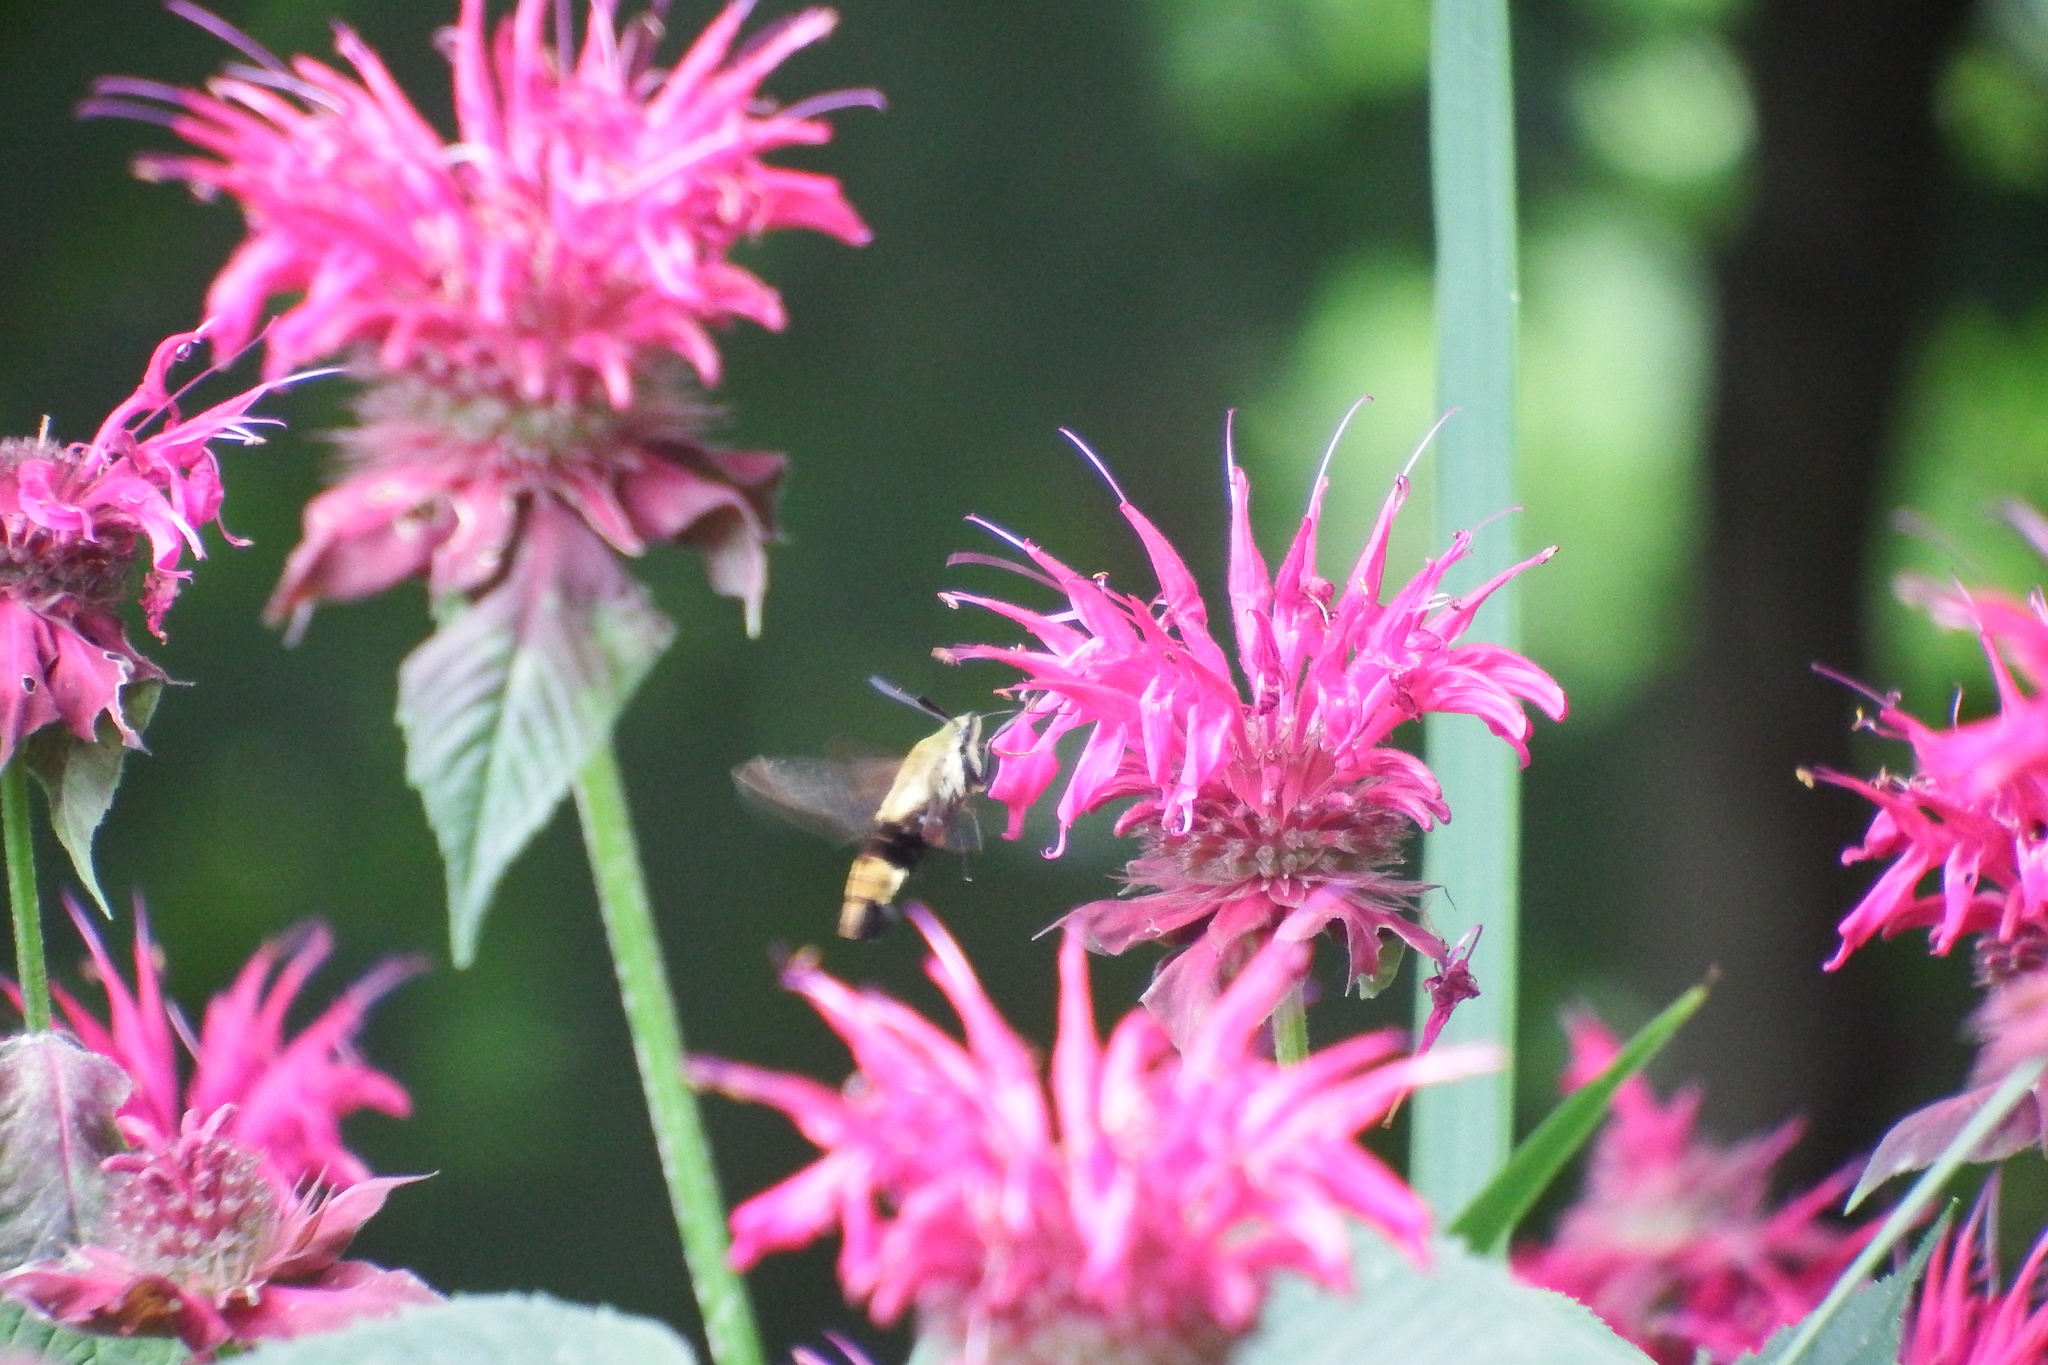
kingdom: Animalia
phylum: Arthropoda
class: Insecta
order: Lepidoptera
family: Sphingidae
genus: Hemaris
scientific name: Hemaris diffinis
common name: Bumblebee moth
